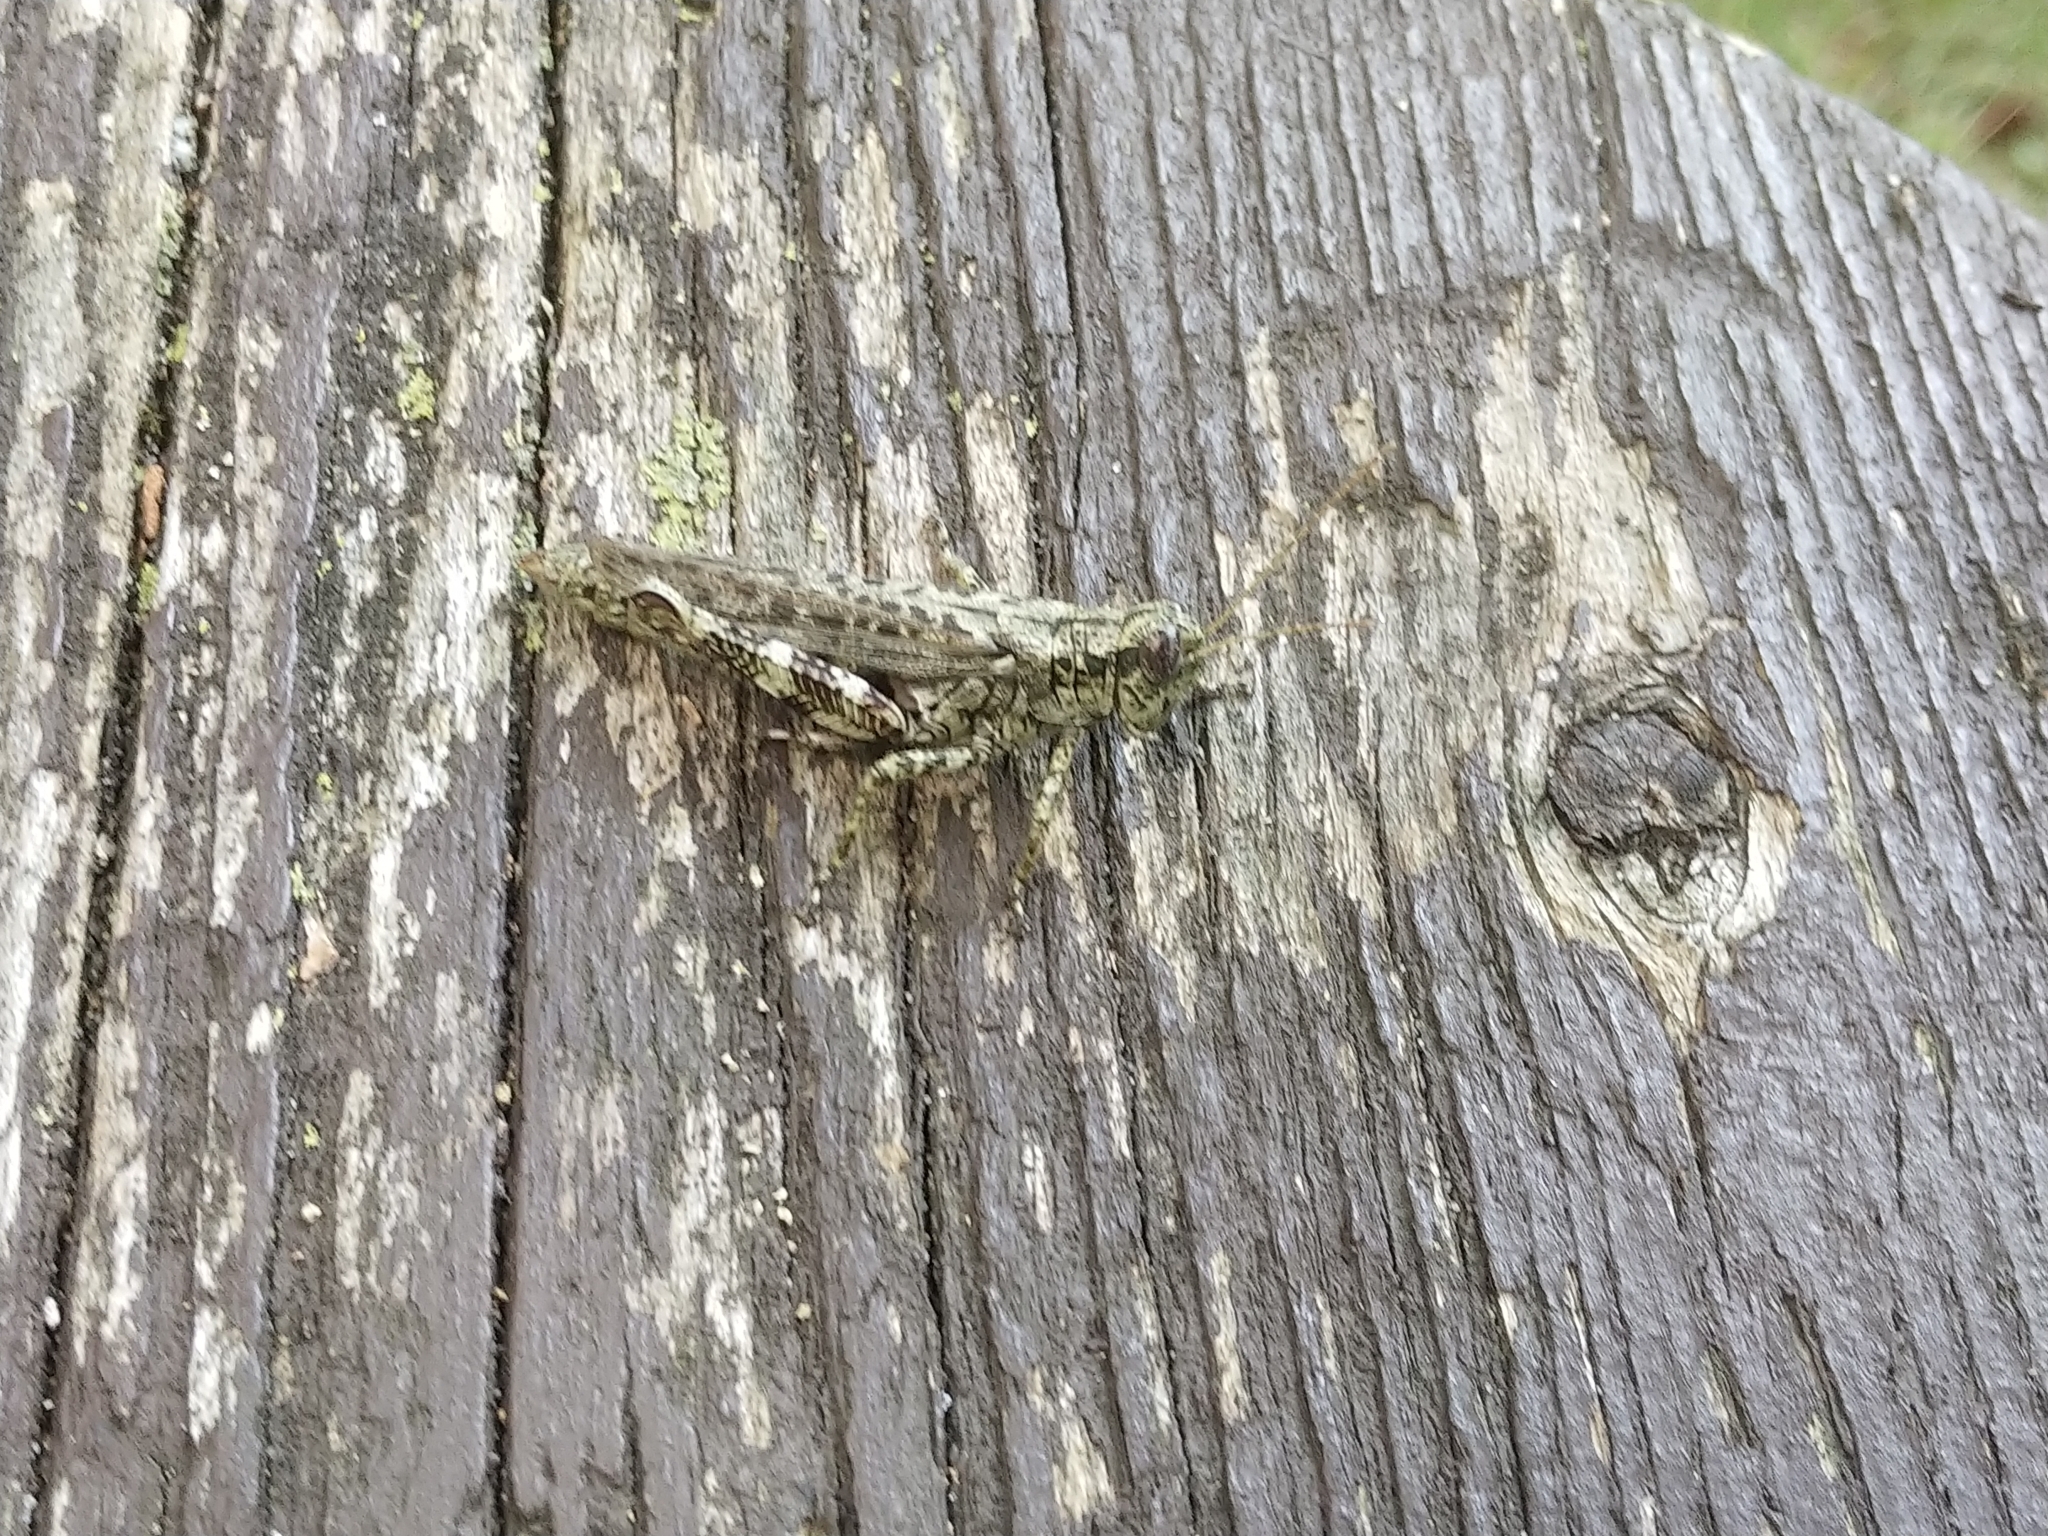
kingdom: Animalia
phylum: Arthropoda
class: Insecta
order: Orthoptera
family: Acrididae
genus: Melanoplus
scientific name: Melanoplus punctulatus
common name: Pine-tree spur-throat grasshopper
